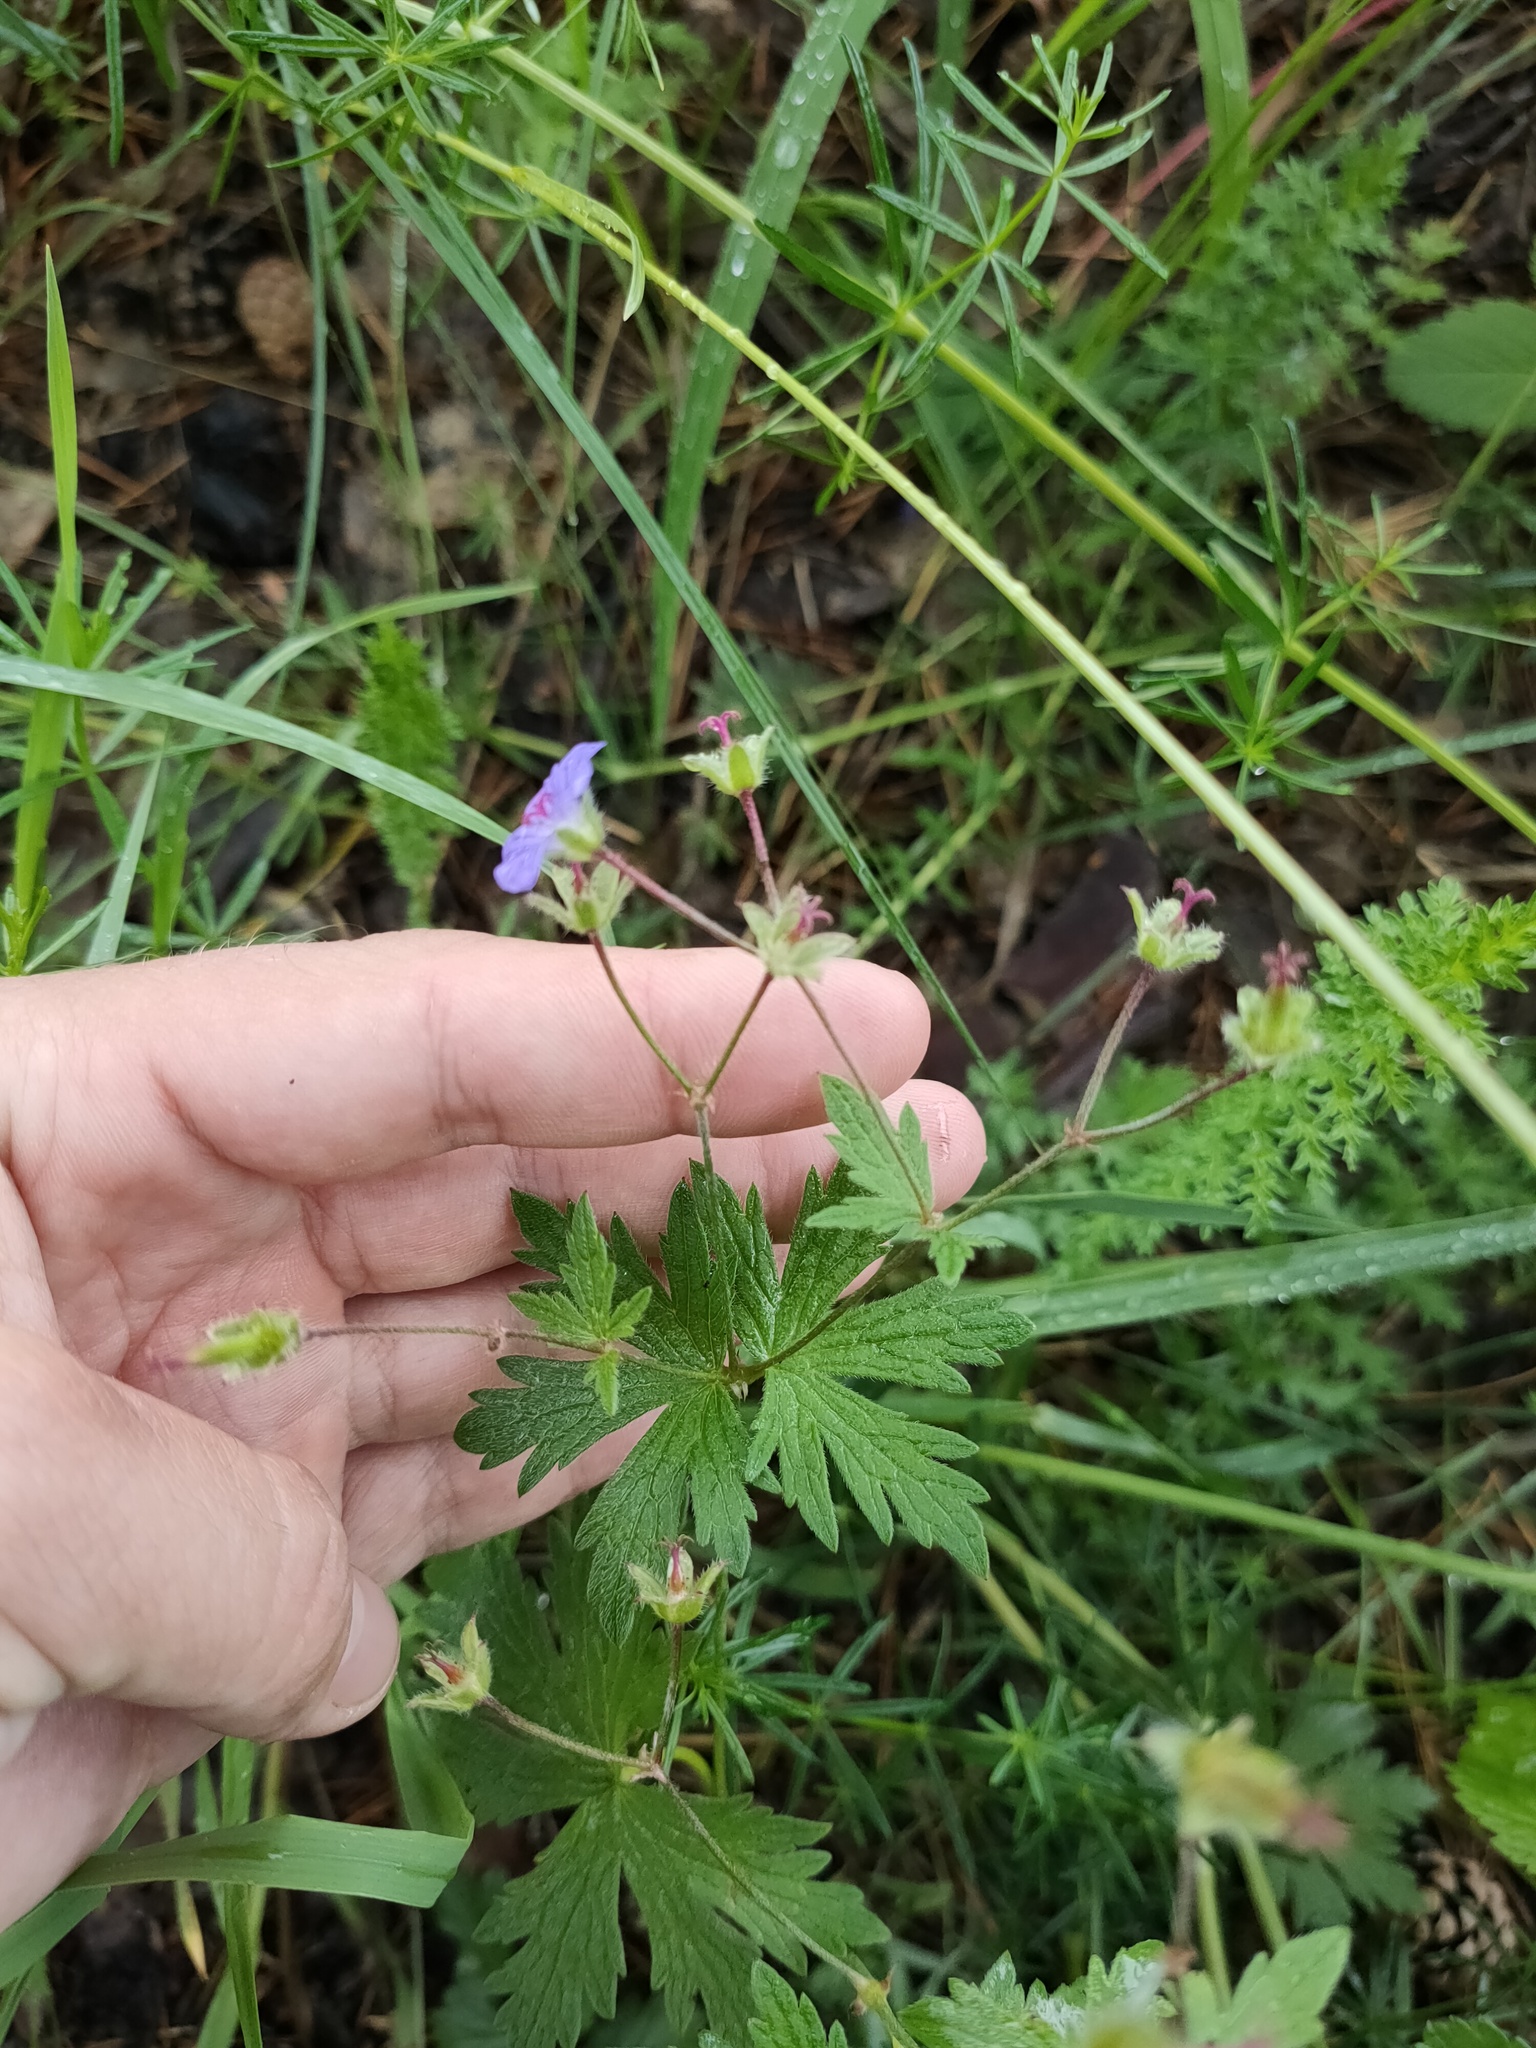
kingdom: Plantae
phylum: Tracheophyta
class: Magnoliopsida
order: Geraniales
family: Geraniaceae
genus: Geranium
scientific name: Geranium igoschinae
